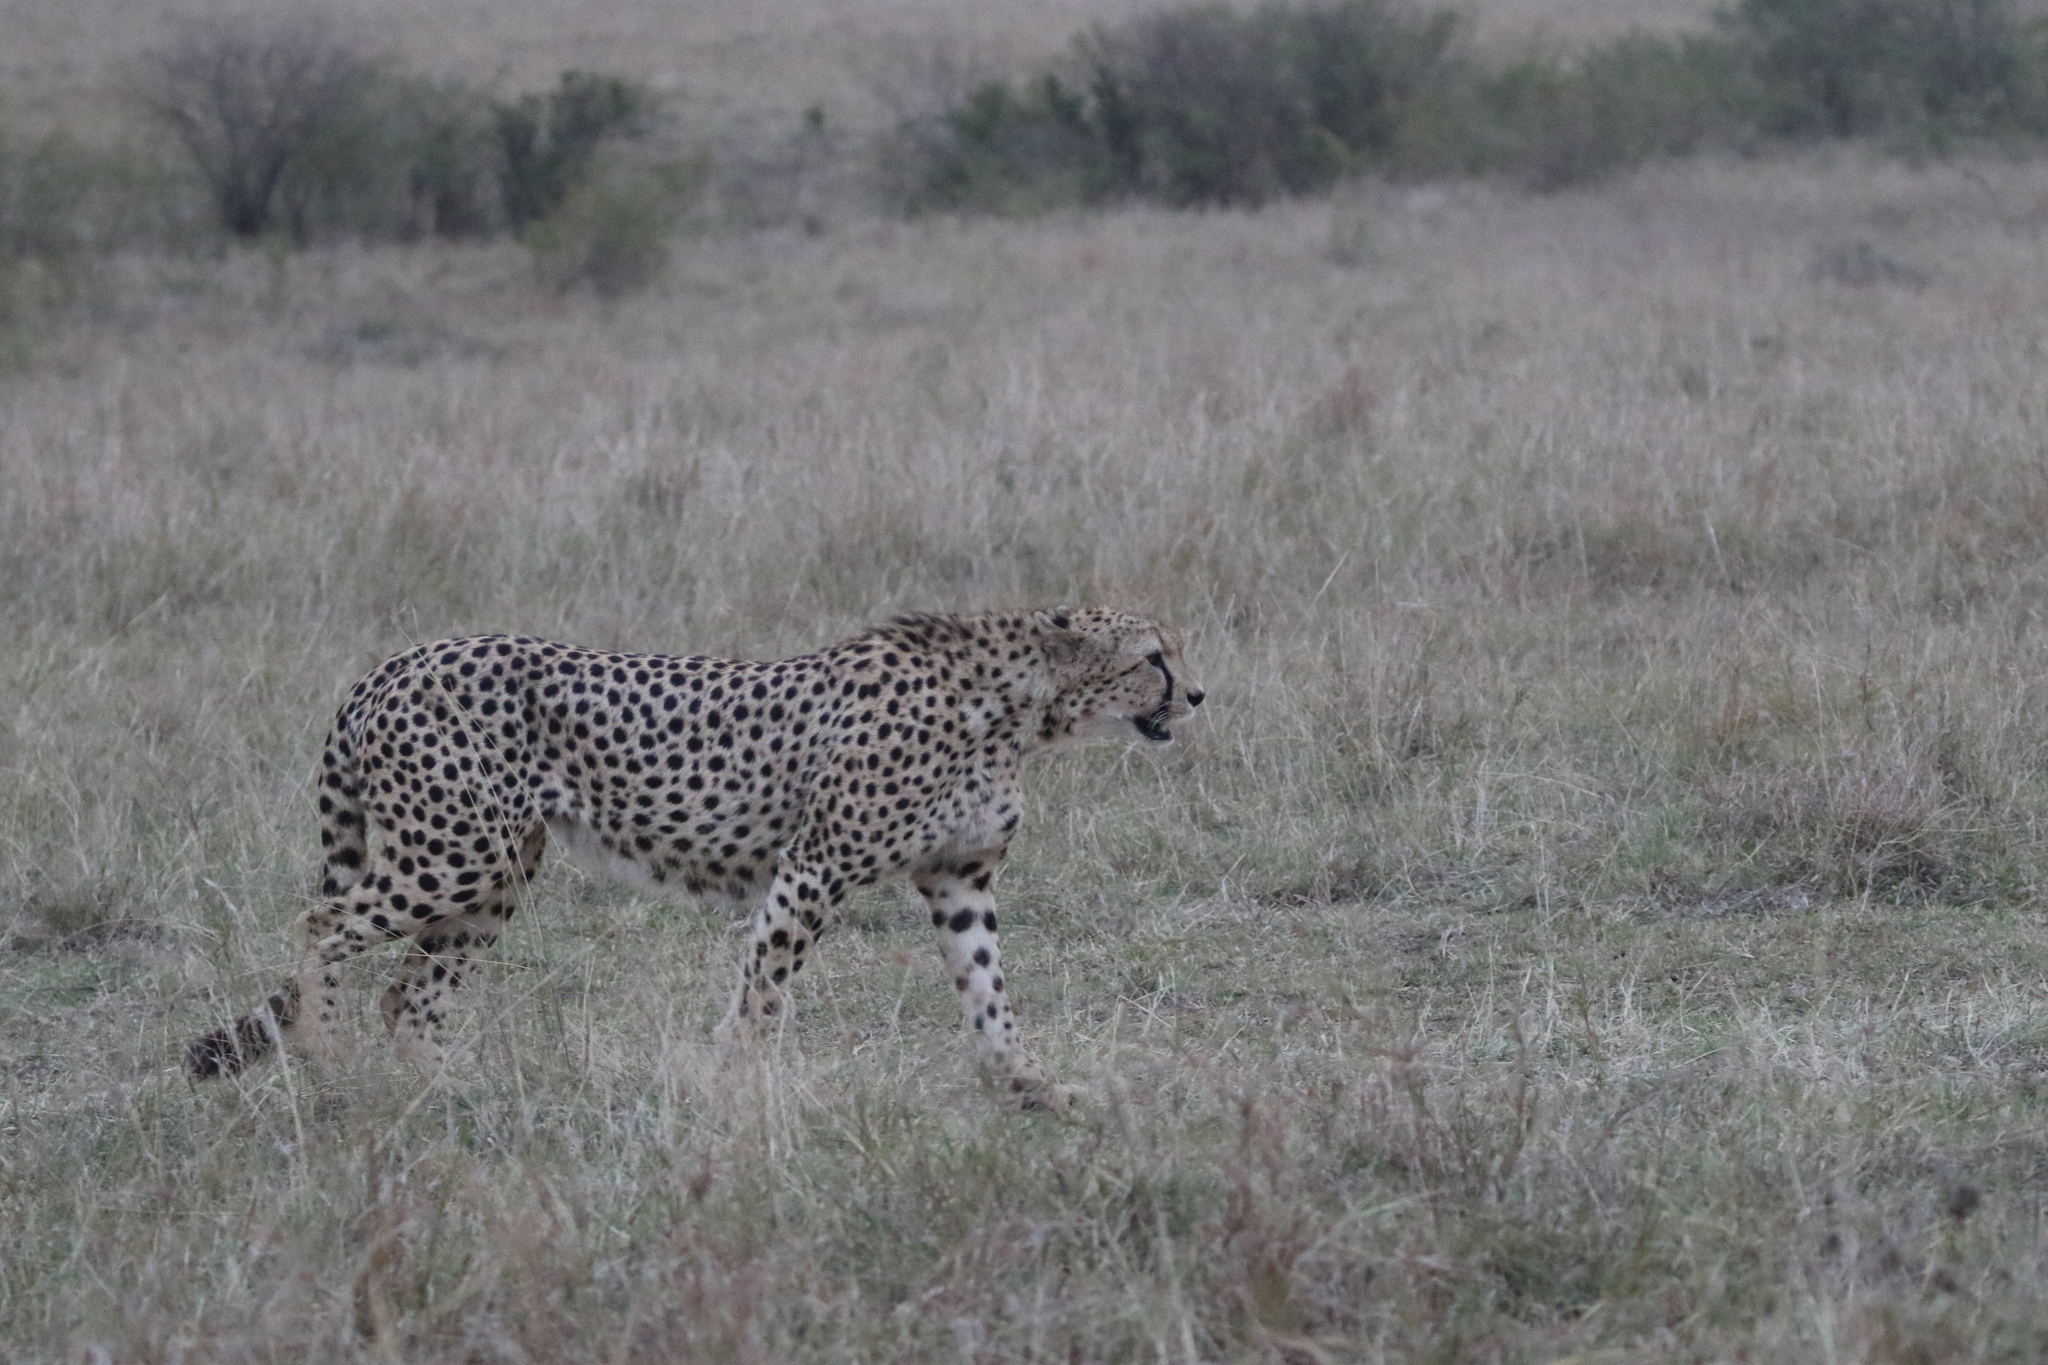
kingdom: Animalia
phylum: Chordata
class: Mammalia
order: Carnivora
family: Felidae
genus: Acinonyx
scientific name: Acinonyx jubatus
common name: Cheetah
